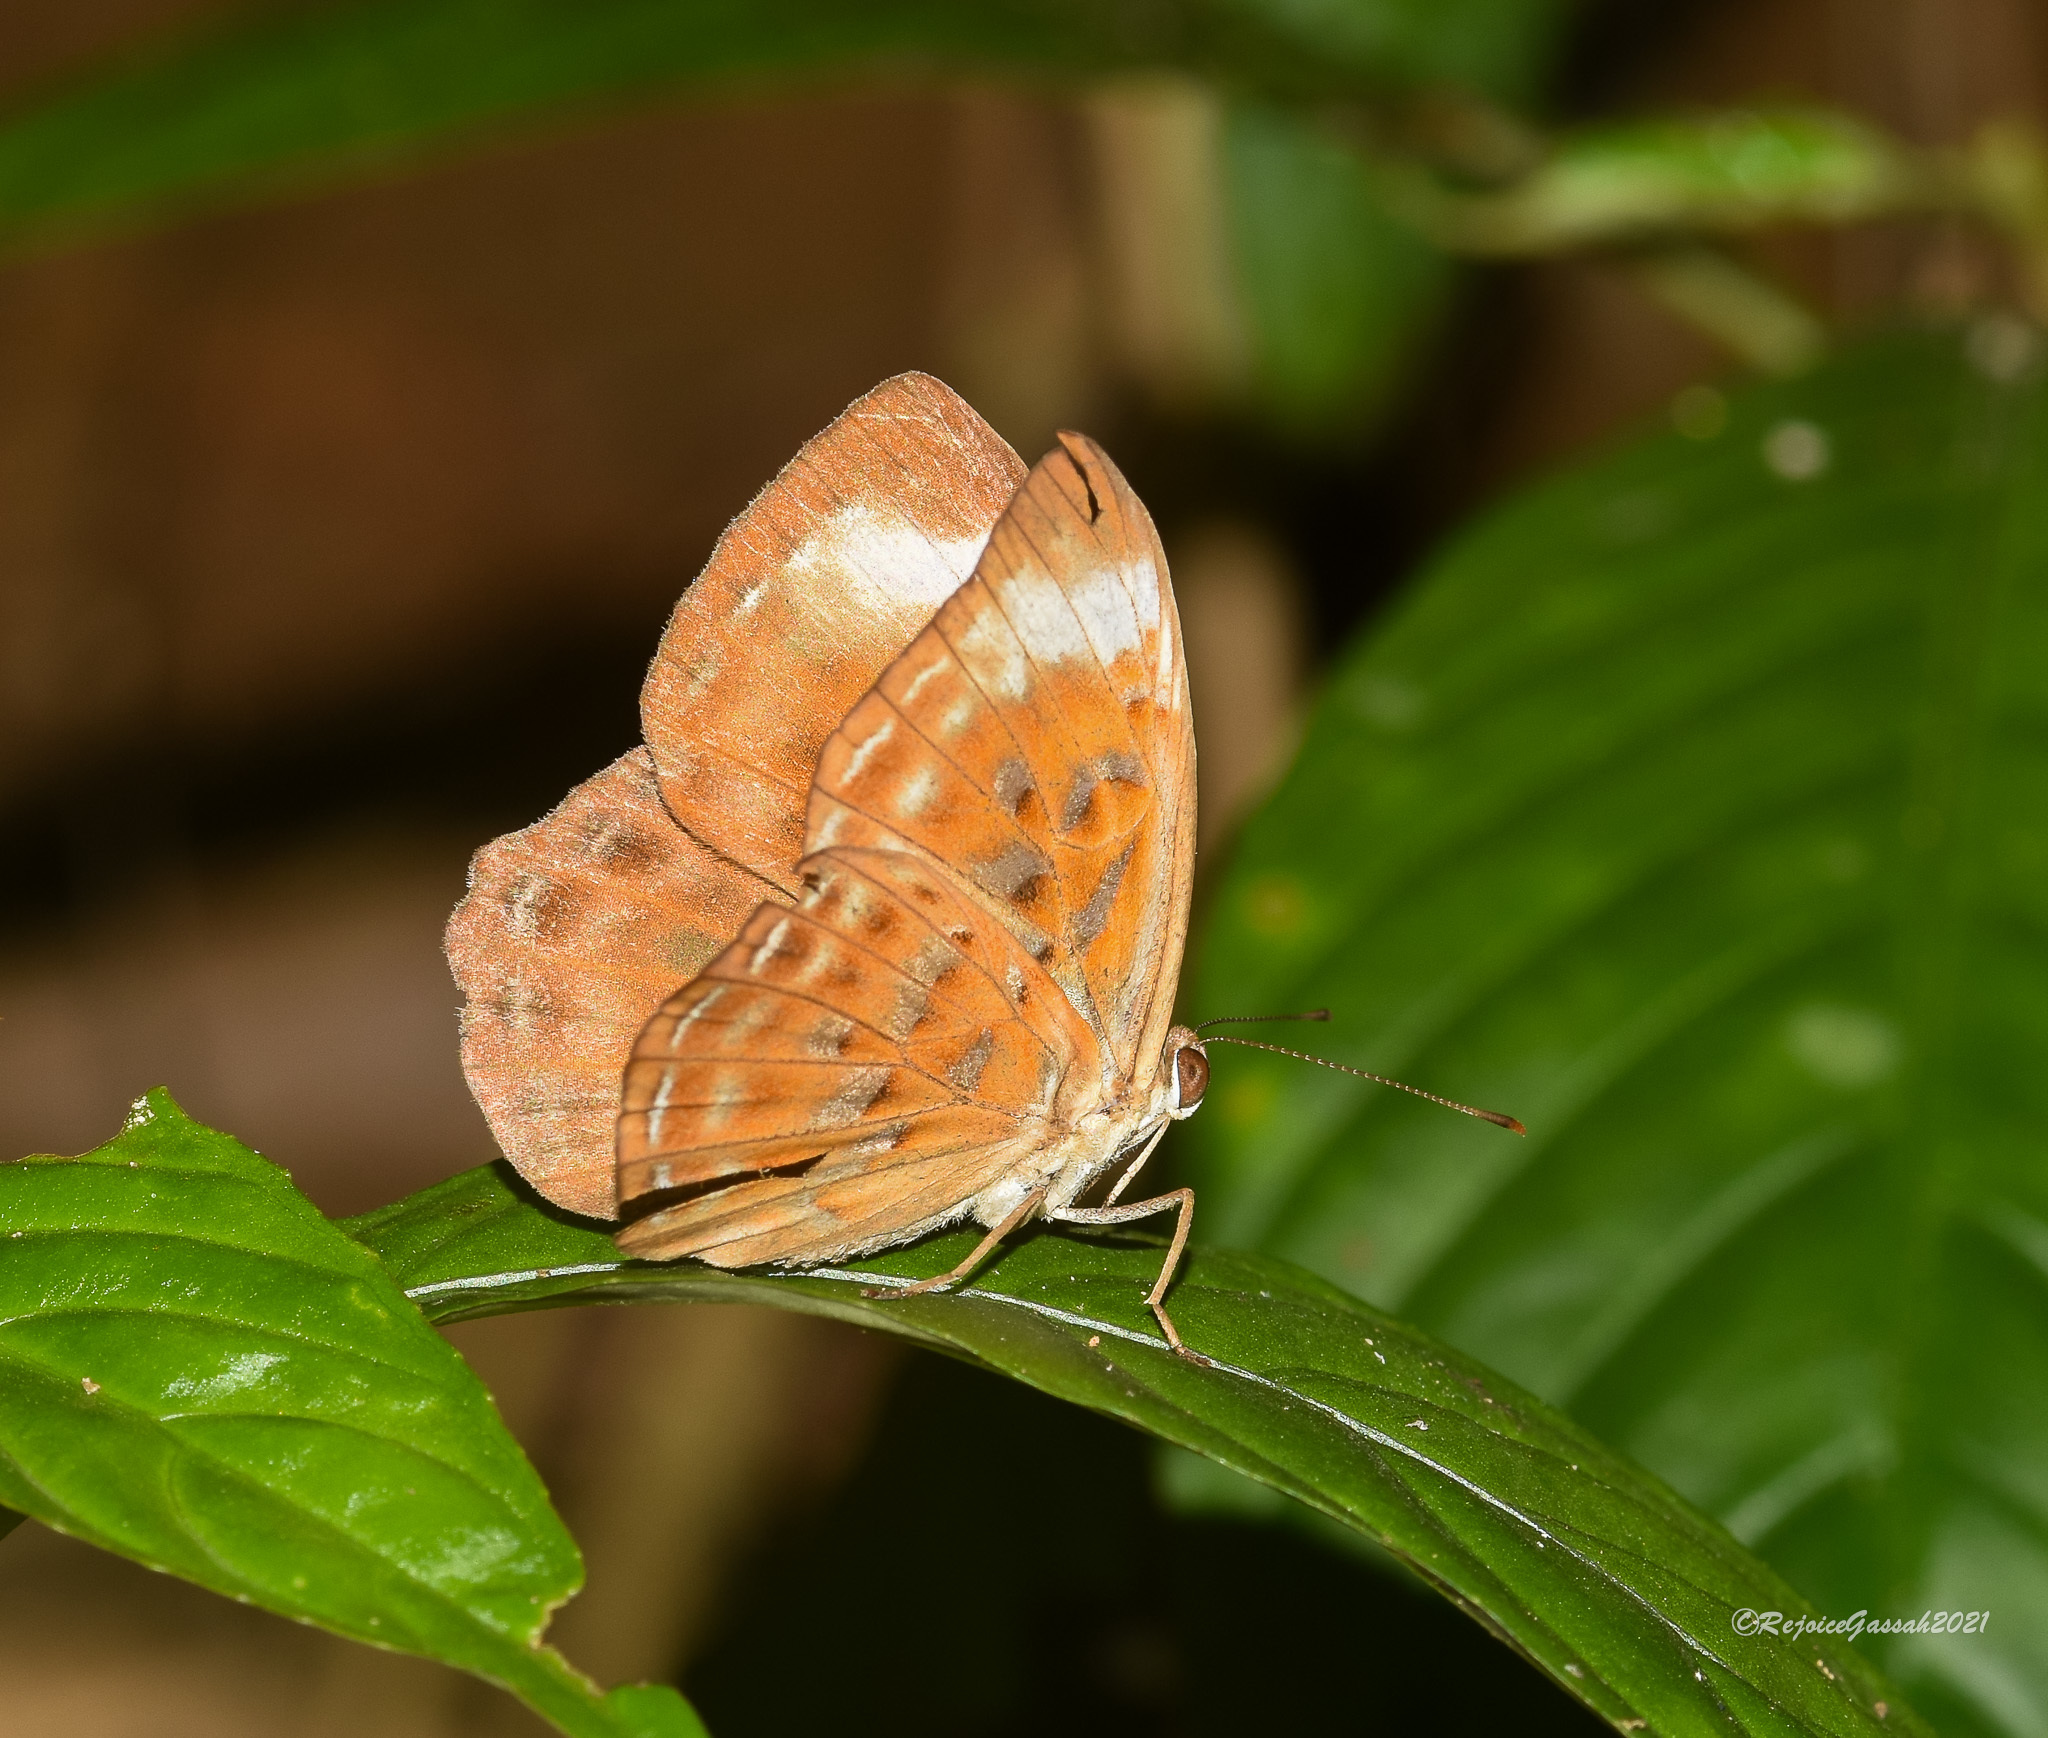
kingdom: Animalia
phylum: Arthropoda
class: Insecta
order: Lepidoptera
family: Erebidae
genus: Dysschema
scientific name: Dysschema
